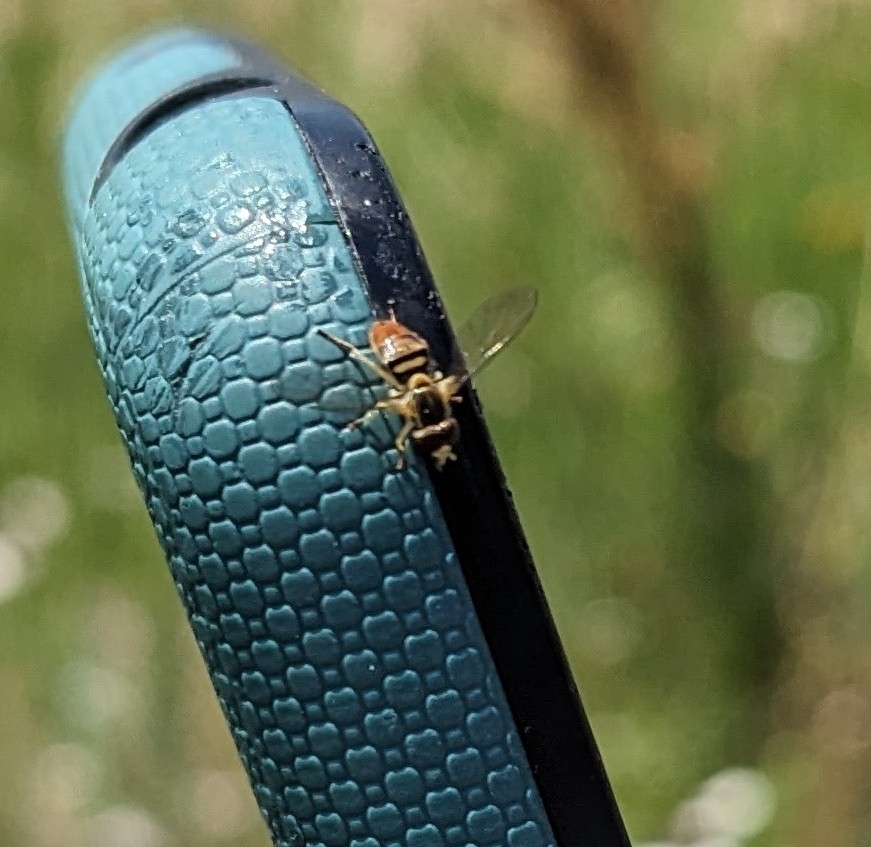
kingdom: Animalia
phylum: Arthropoda
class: Insecta
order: Diptera
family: Syrphidae
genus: Toxomerus
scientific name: Toxomerus marginatus
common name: Syrphid fly
